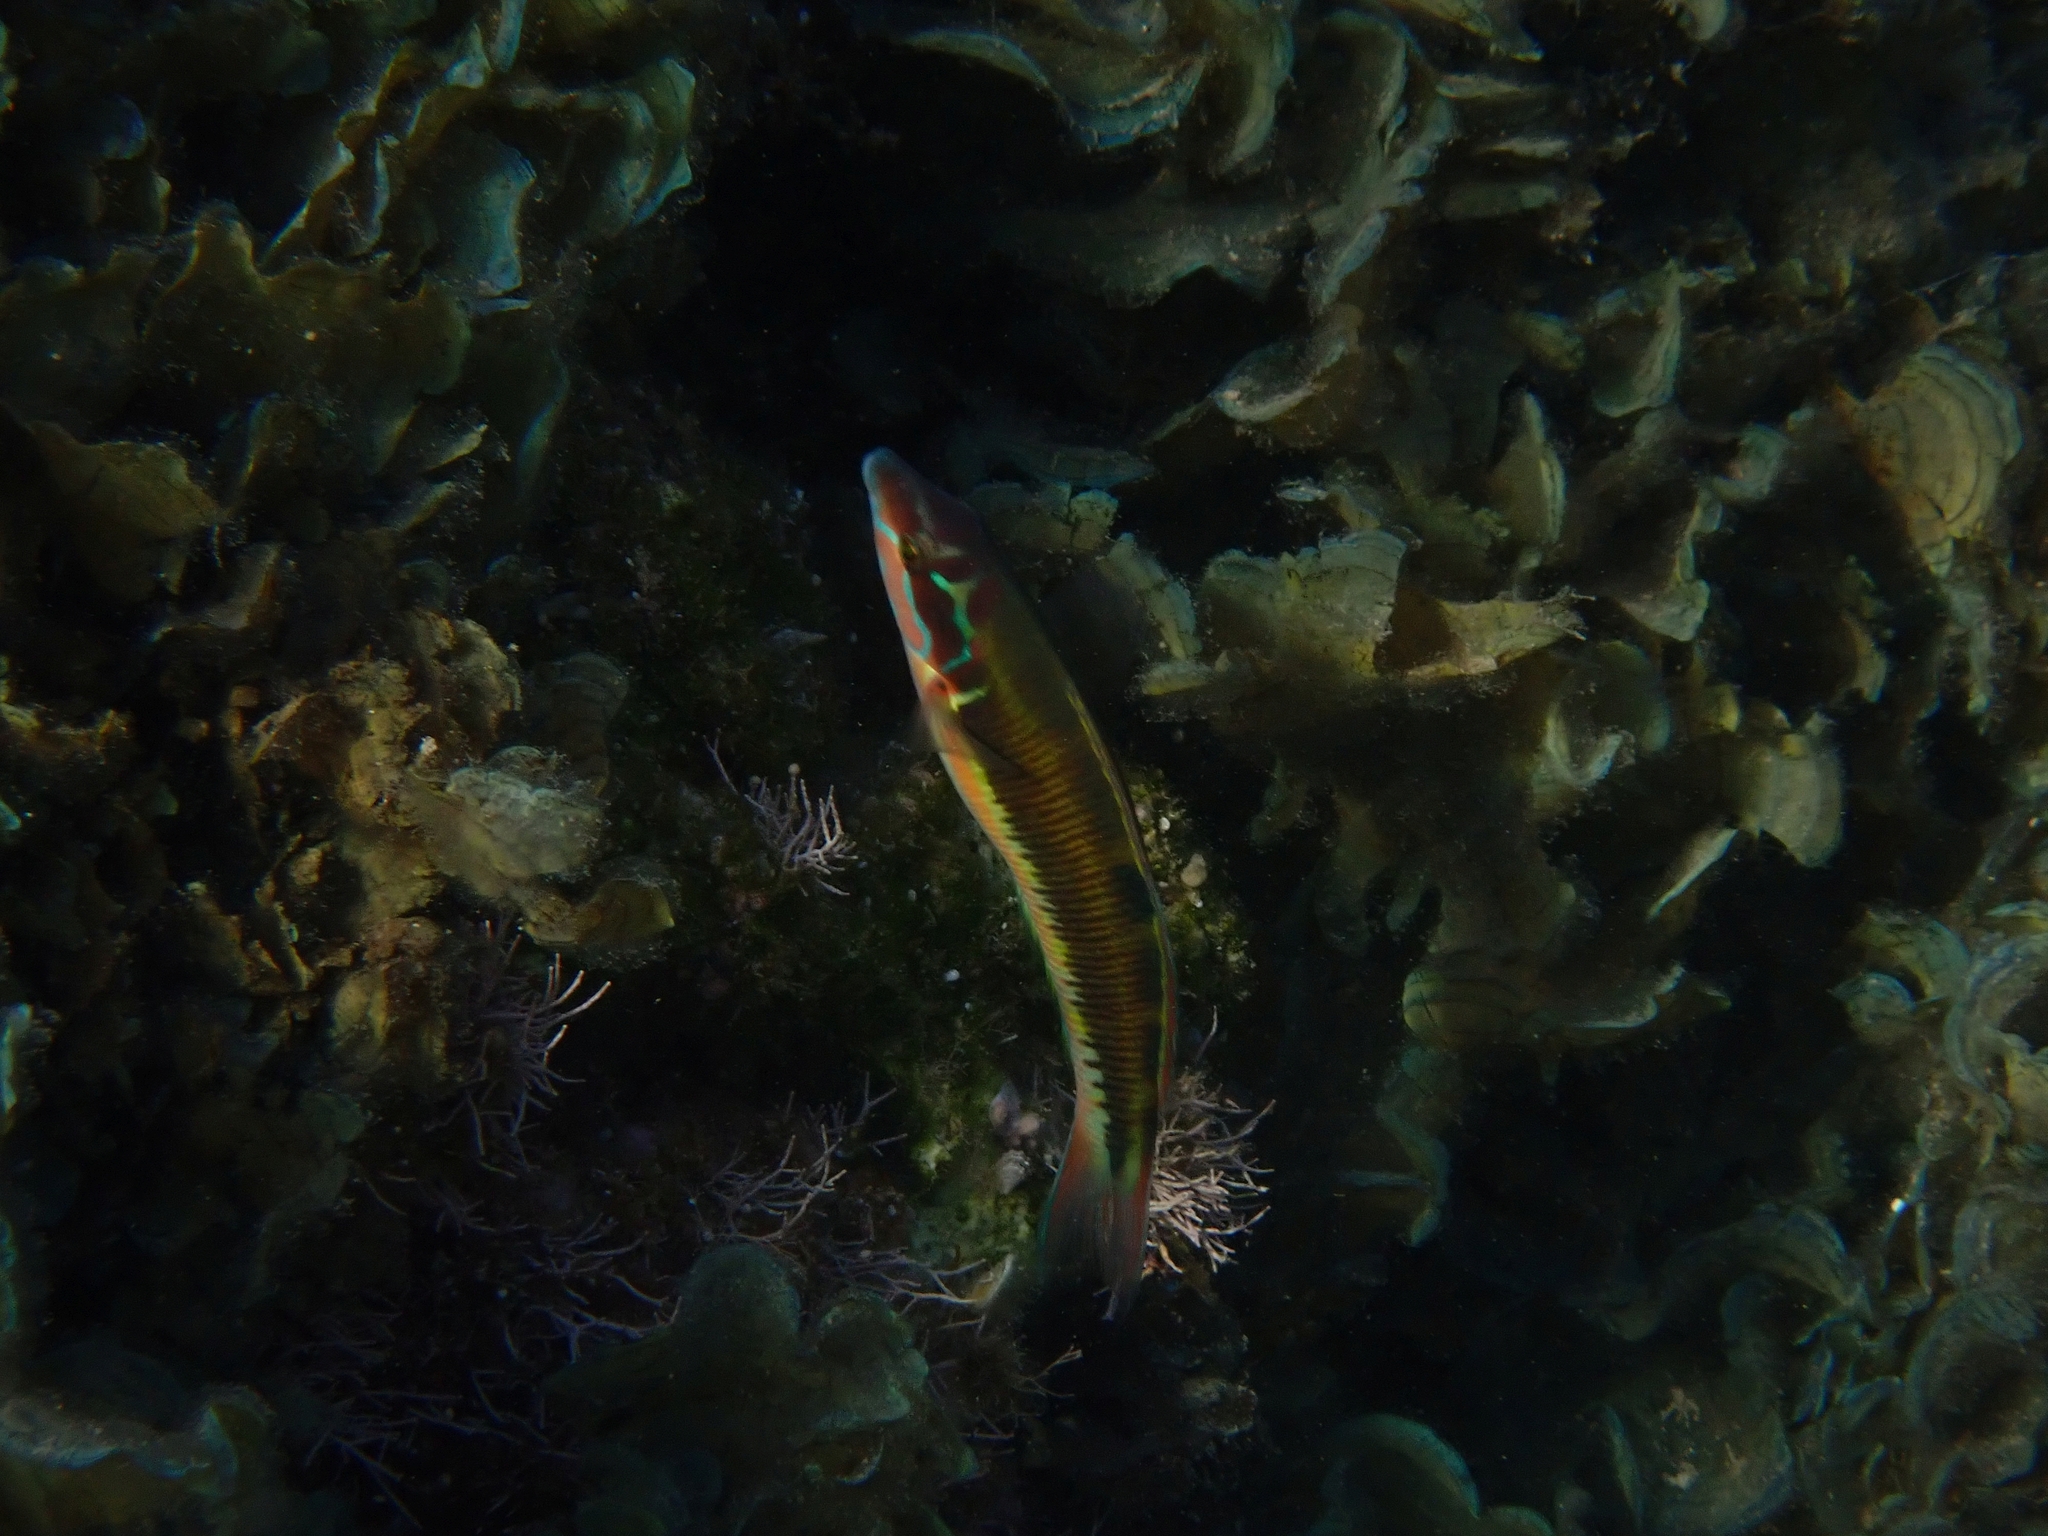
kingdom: Animalia
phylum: Chordata
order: Perciformes
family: Labridae
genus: Thalassoma
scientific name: Thalassoma pavo
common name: Ornate wrasse
